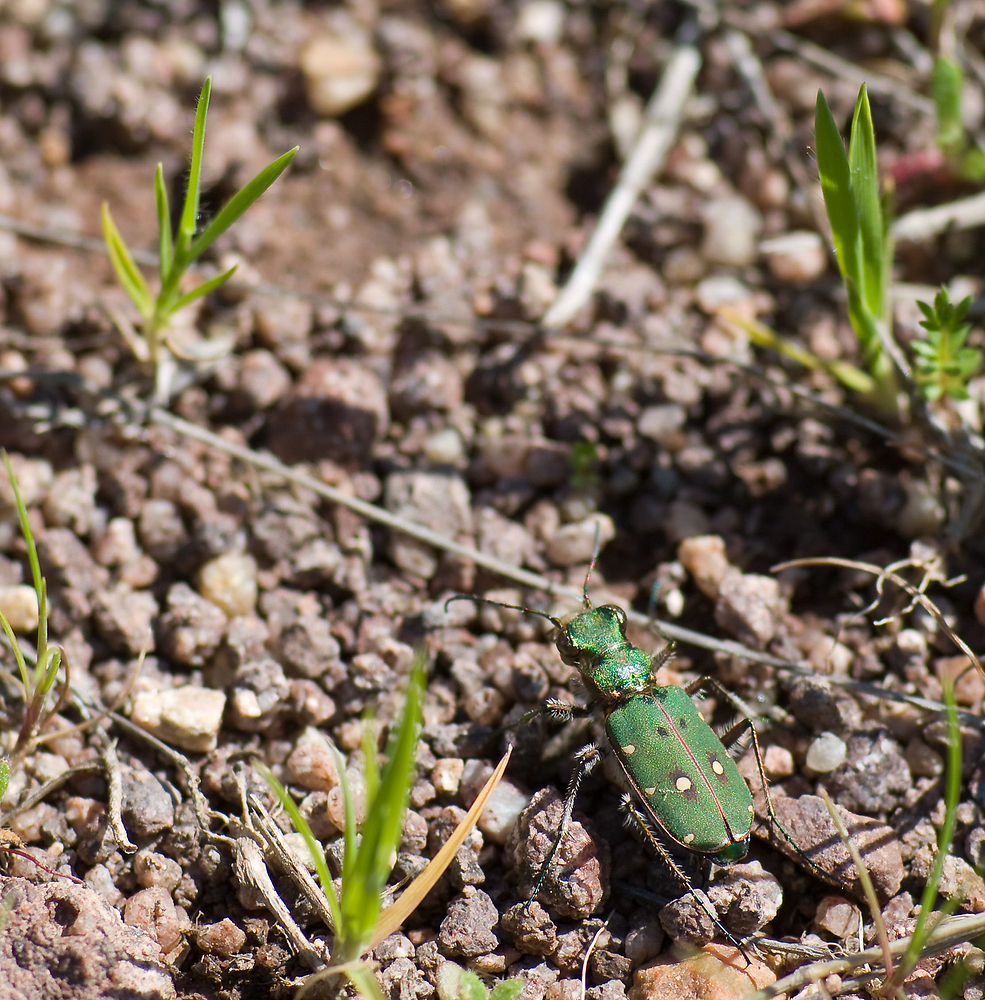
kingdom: Animalia
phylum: Arthropoda
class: Insecta
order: Coleoptera
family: Carabidae
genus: Cicindela
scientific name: Cicindela campestris
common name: Common tiger beetle
